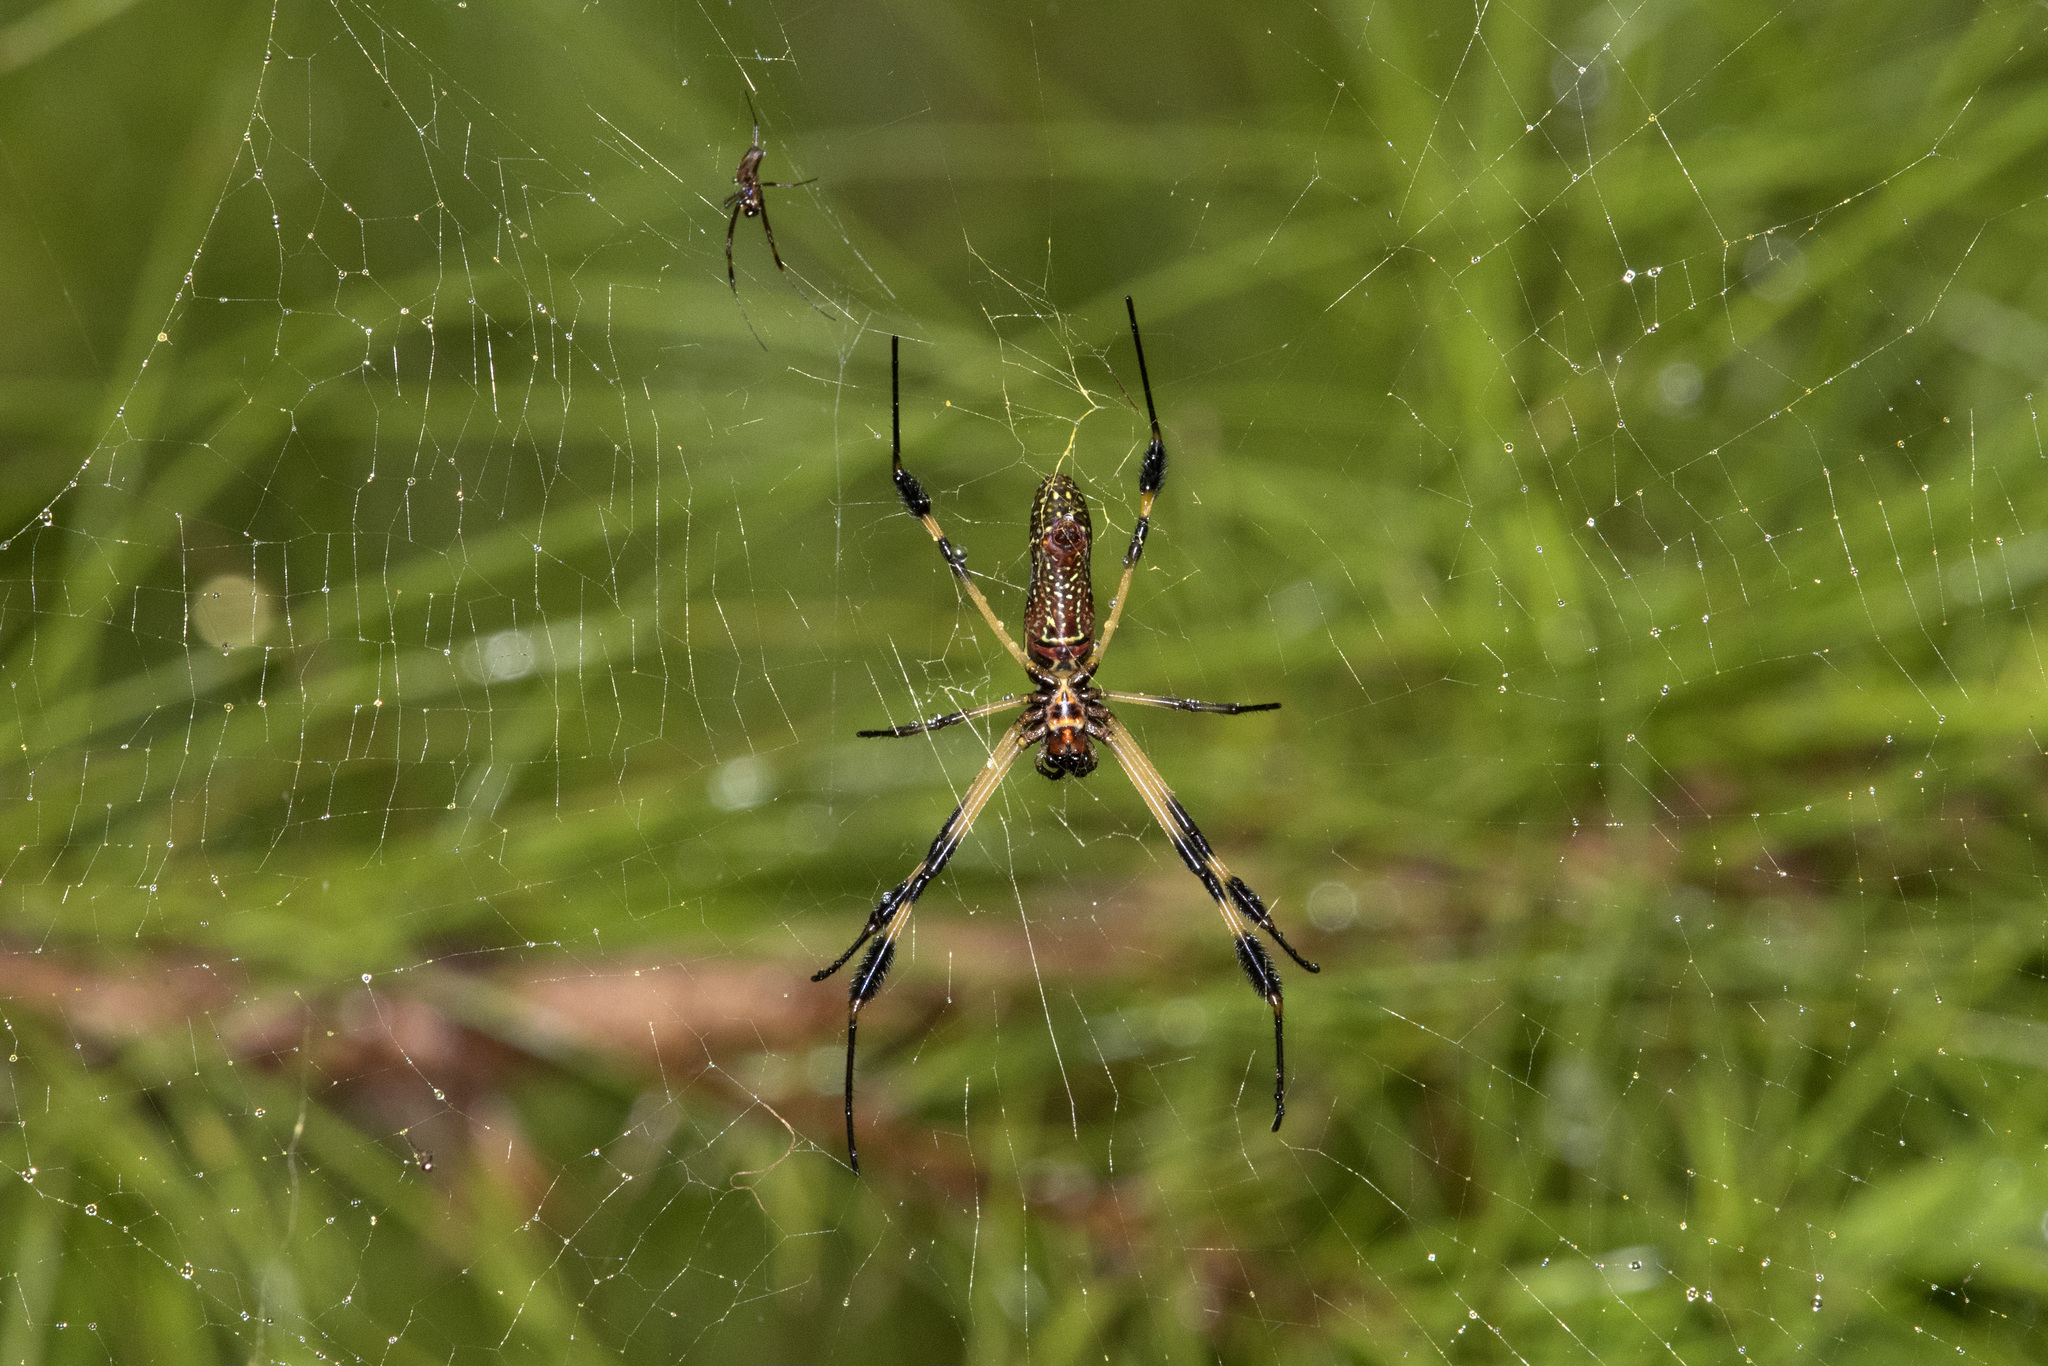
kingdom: Animalia
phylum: Arthropoda
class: Arachnida
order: Araneae
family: Araneidae
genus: Trichonephila
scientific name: Trichonephila clavipes
